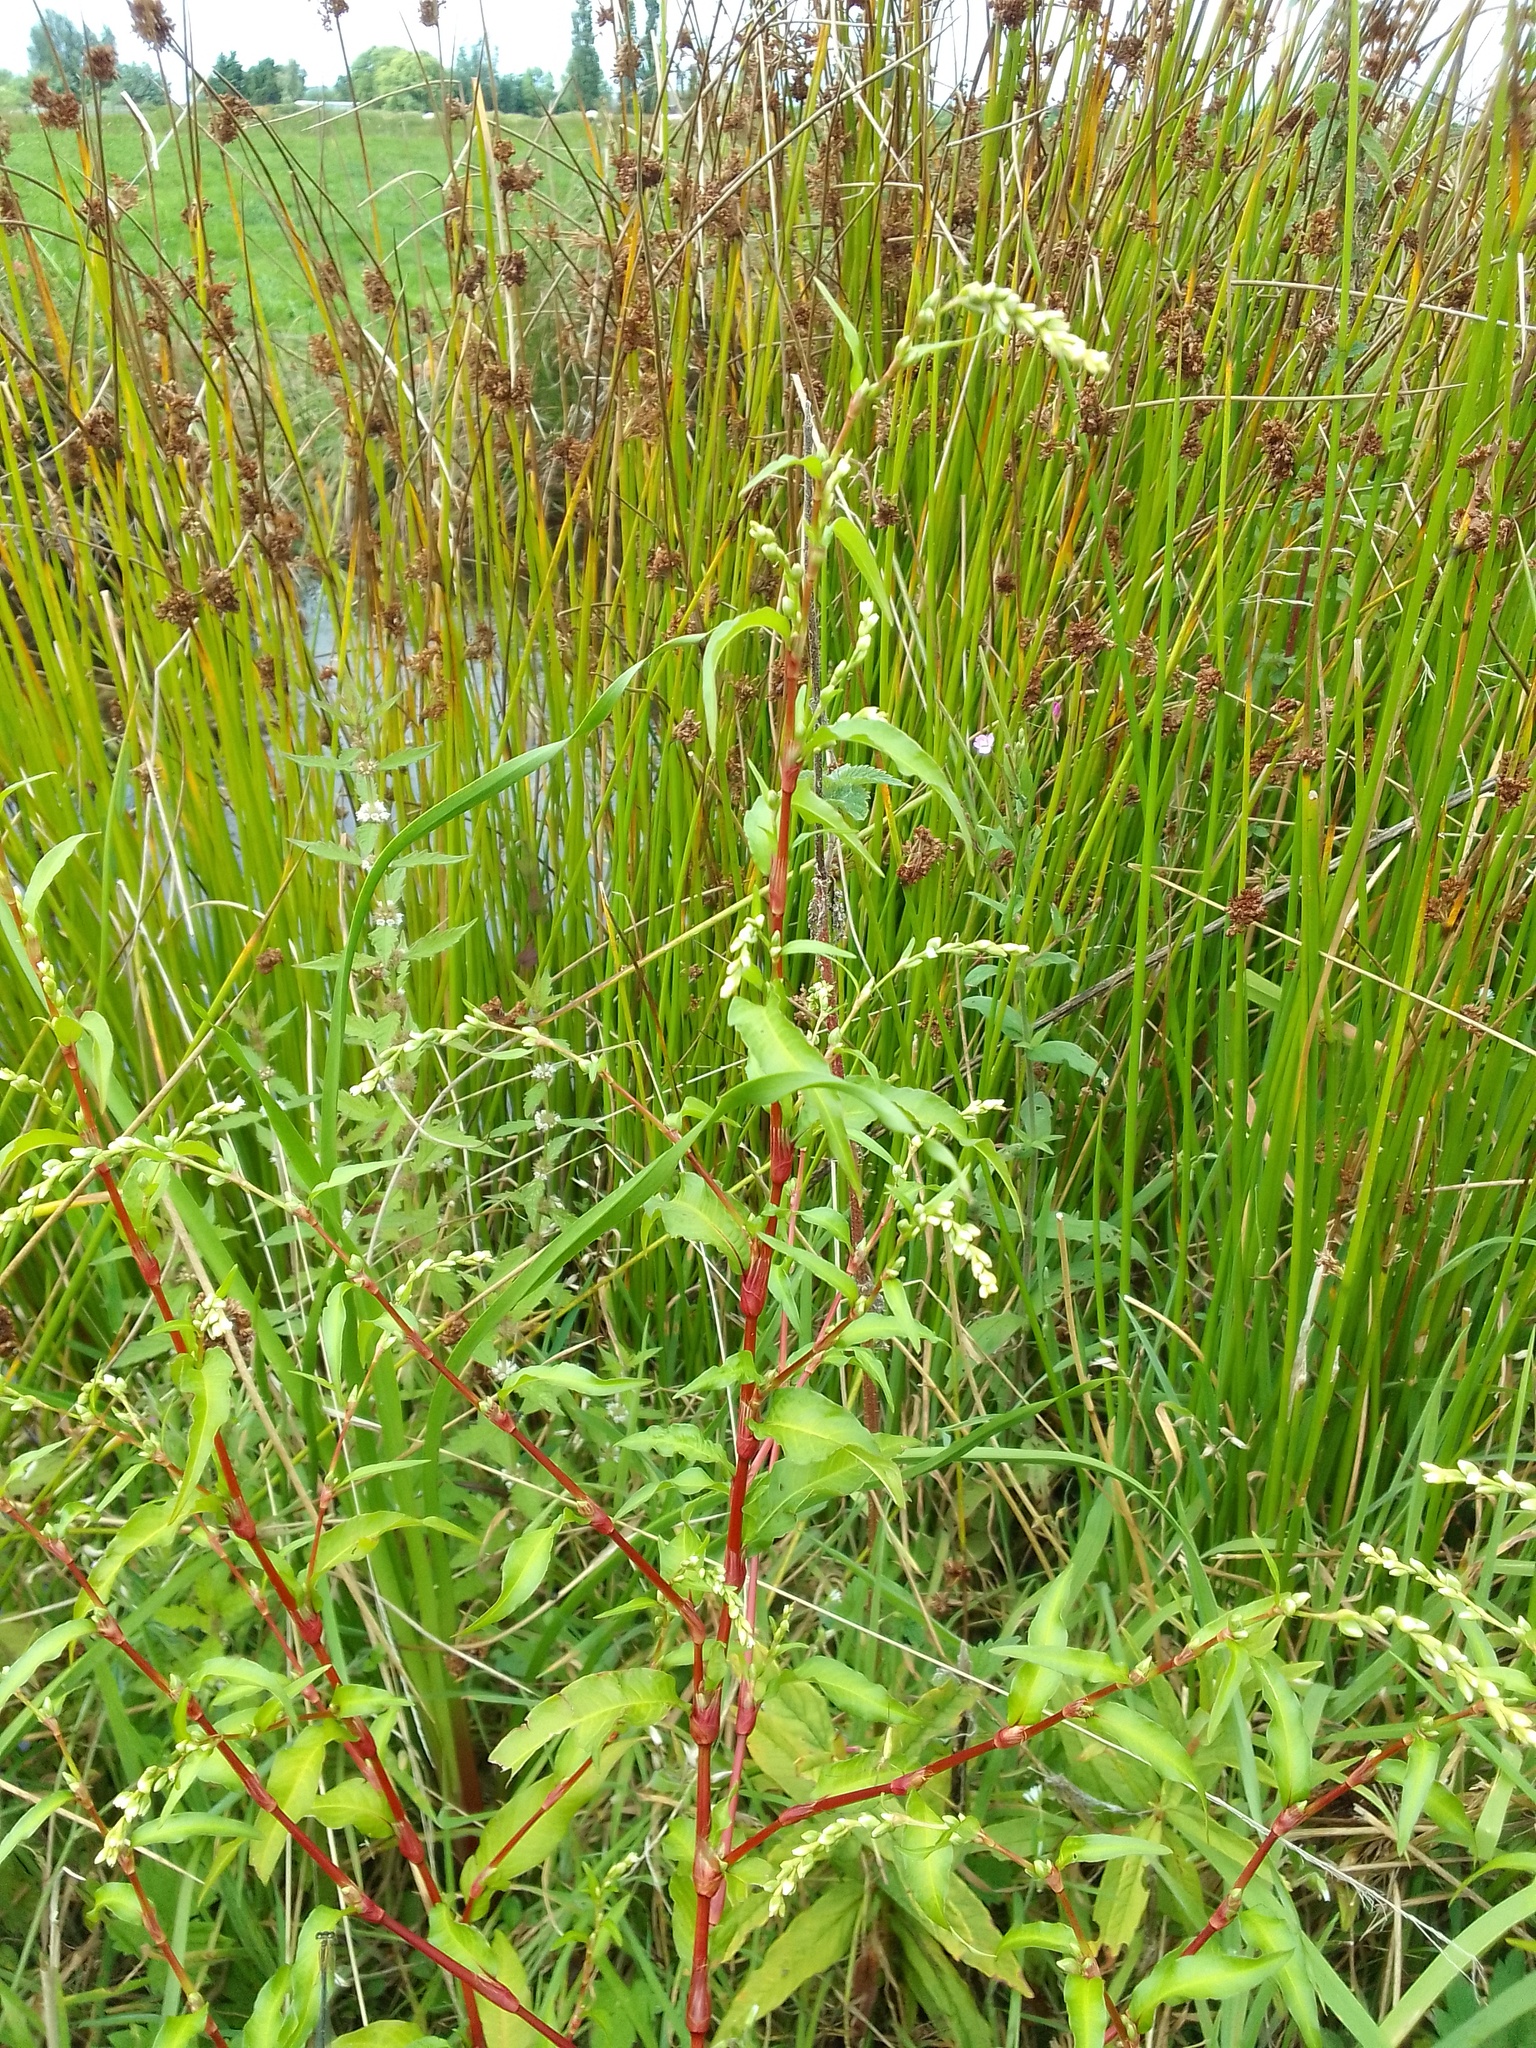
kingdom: Plantae
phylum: Tracheophyta
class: Magnoliopsida
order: Caryophyllales
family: Polygonaceae
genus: Persicaria
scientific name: Persicaria hydropiper
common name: Water-pepper
